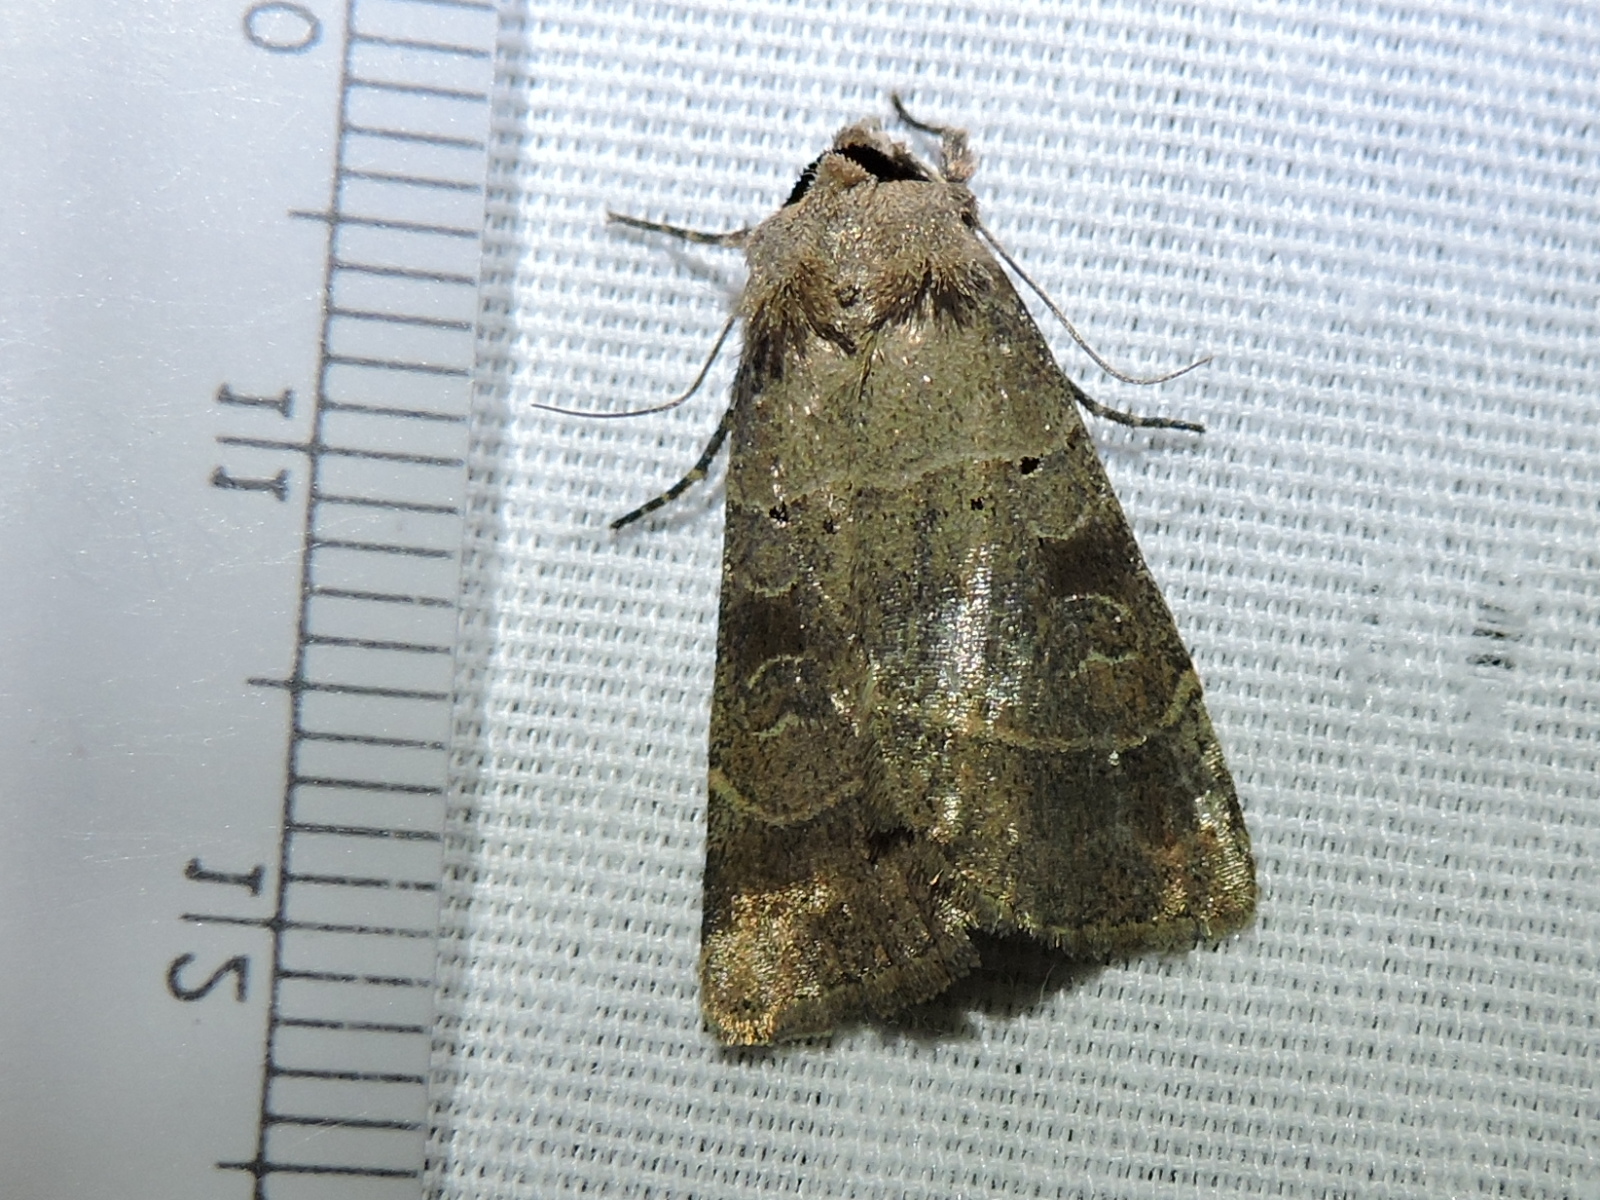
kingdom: Animalia
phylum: Arthropoda
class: Insecta
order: Lepidoptera
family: Noctuidae
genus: Agnorisma
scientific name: Agnorisma badinodis
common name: Pale-banded dart
